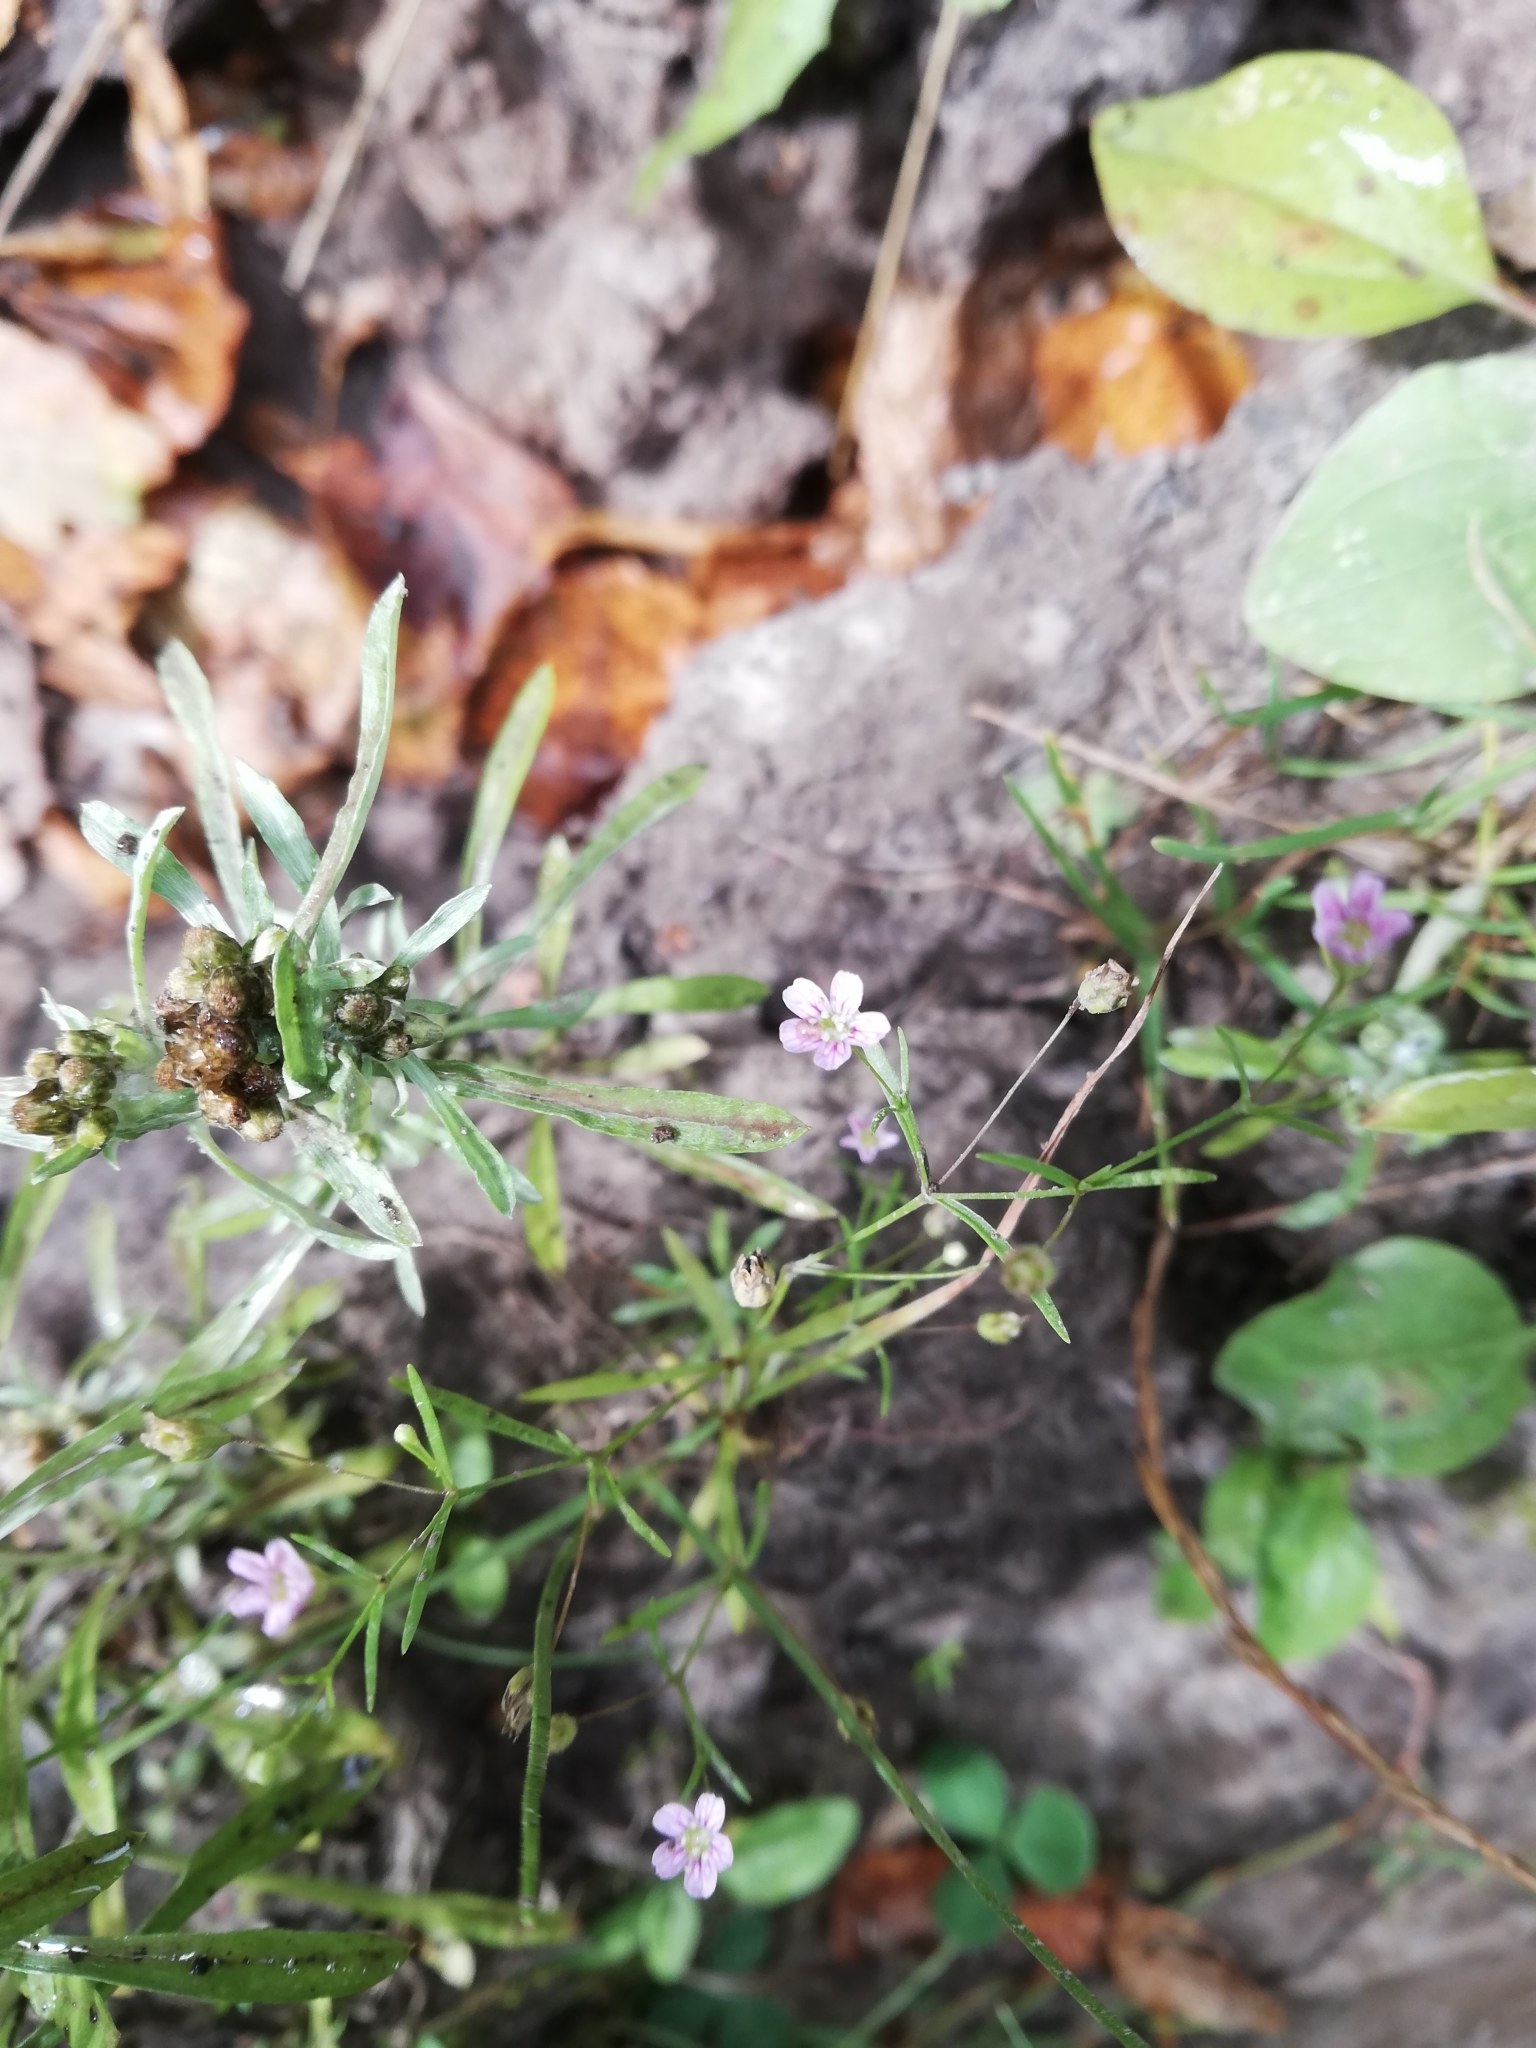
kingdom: Plantae
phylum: Tracheophyta
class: Magnoliopsida
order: Caryophyllales
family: Caryophyllaceae
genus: Psammophiliella
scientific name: Psammophiliella muralis
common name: Cushion baby's-breath
